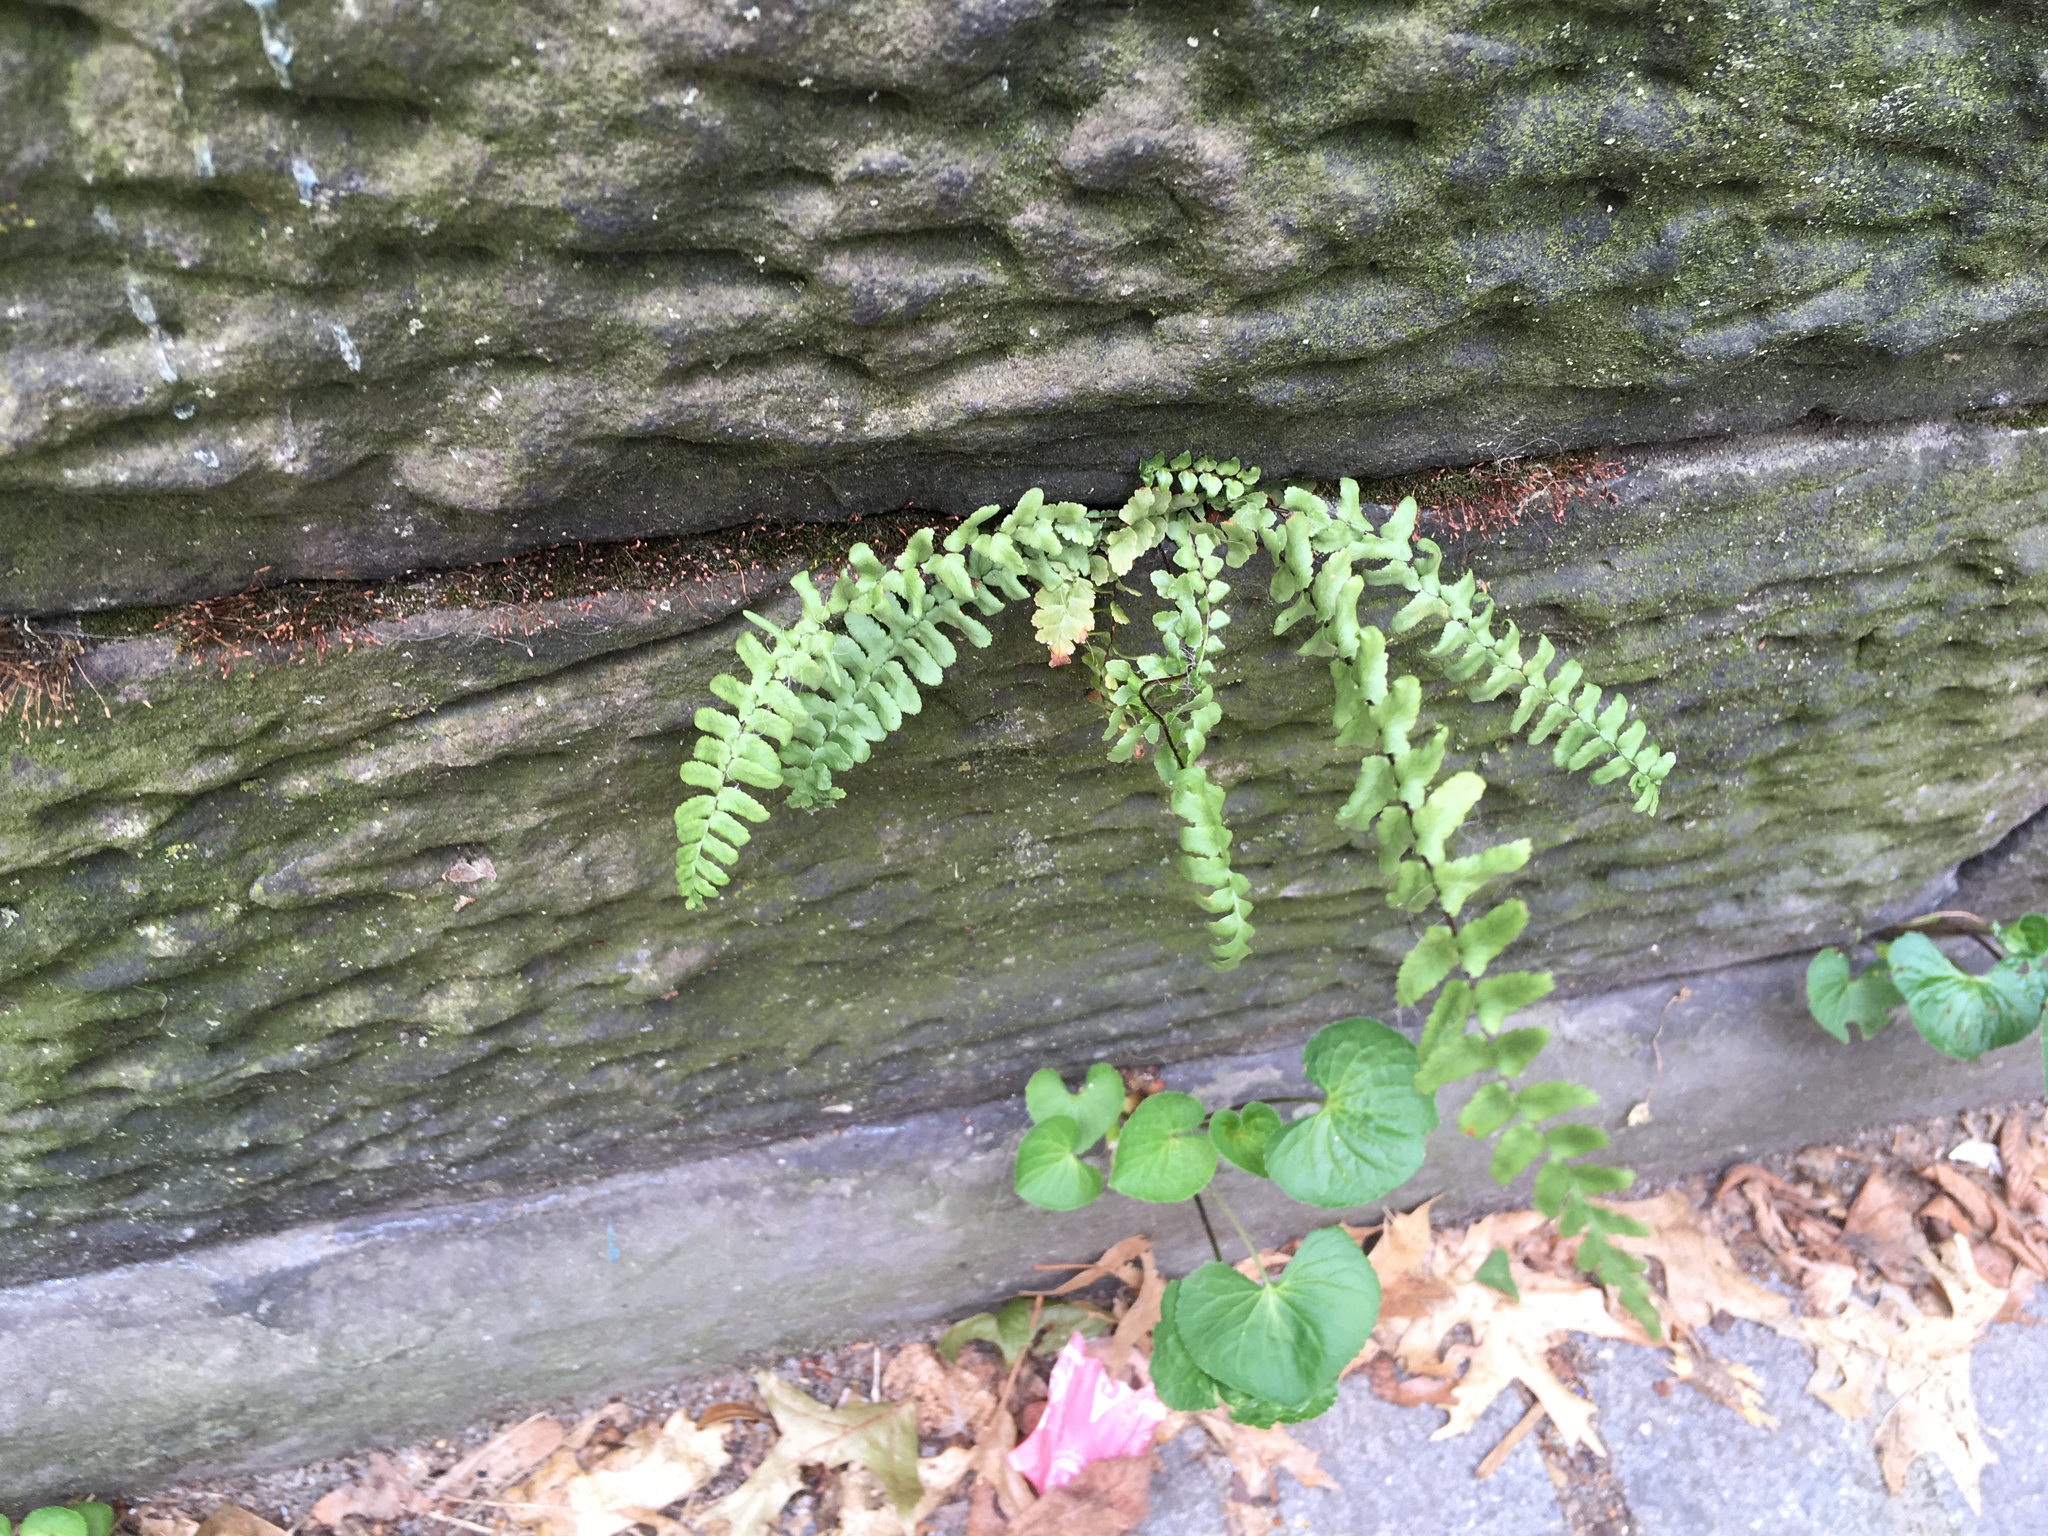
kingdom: Plantae
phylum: Tracheophyta
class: Polypodiopsida
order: Polypodiales
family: Aspleniaceae
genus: Asplenium
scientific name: Asplenium platyneuron
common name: Ebony spleenwort
